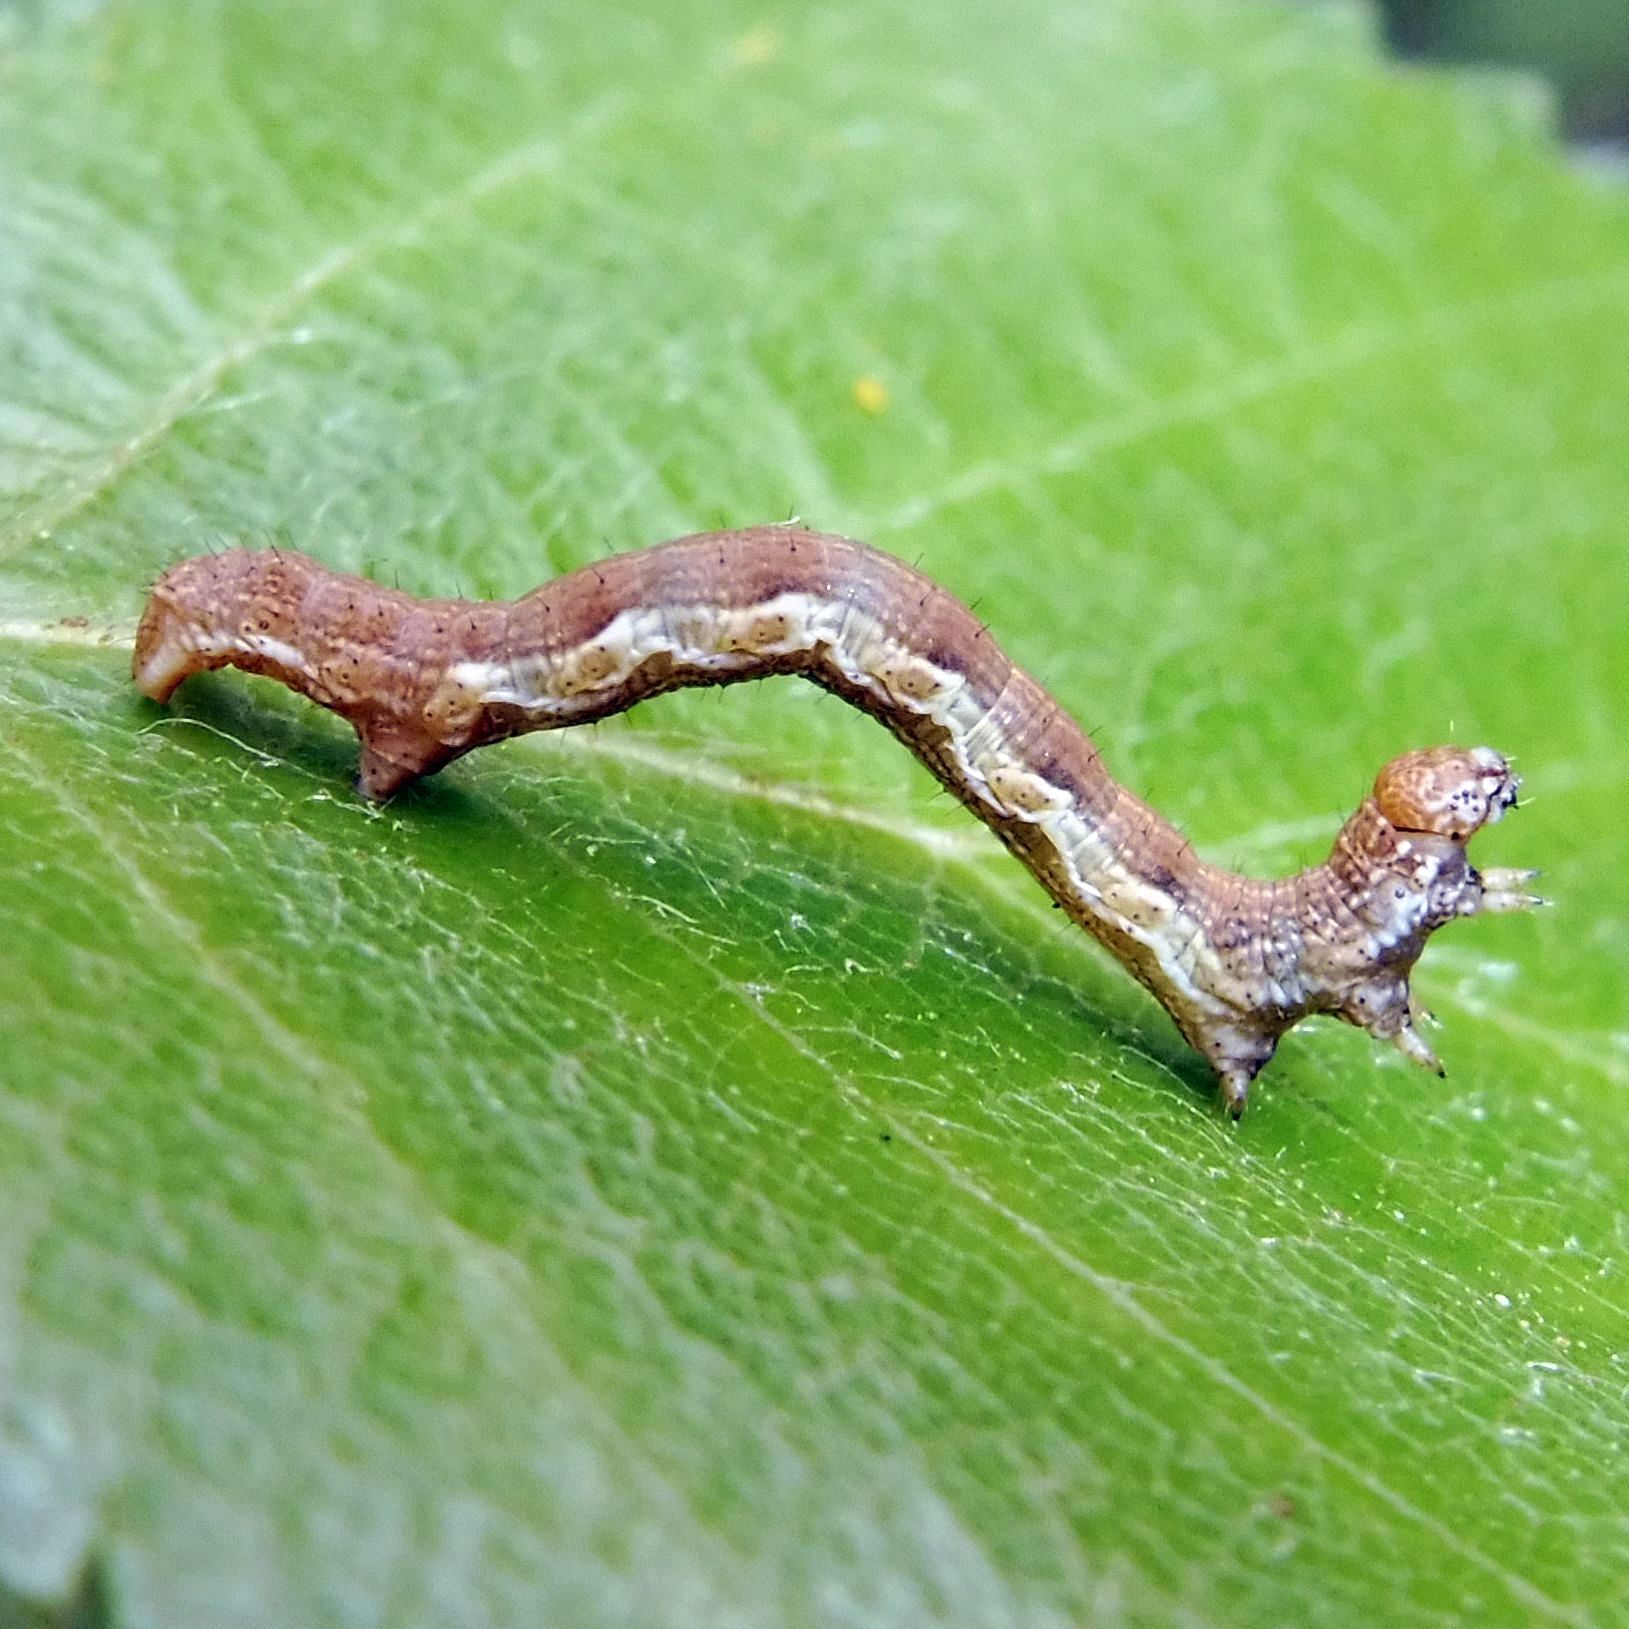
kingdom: Animalia
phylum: Arthropoda
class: Insecta
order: Lepidoptera
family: Geometridae
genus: Erannis
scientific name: Erannis defoliaria
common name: Mottled umber
